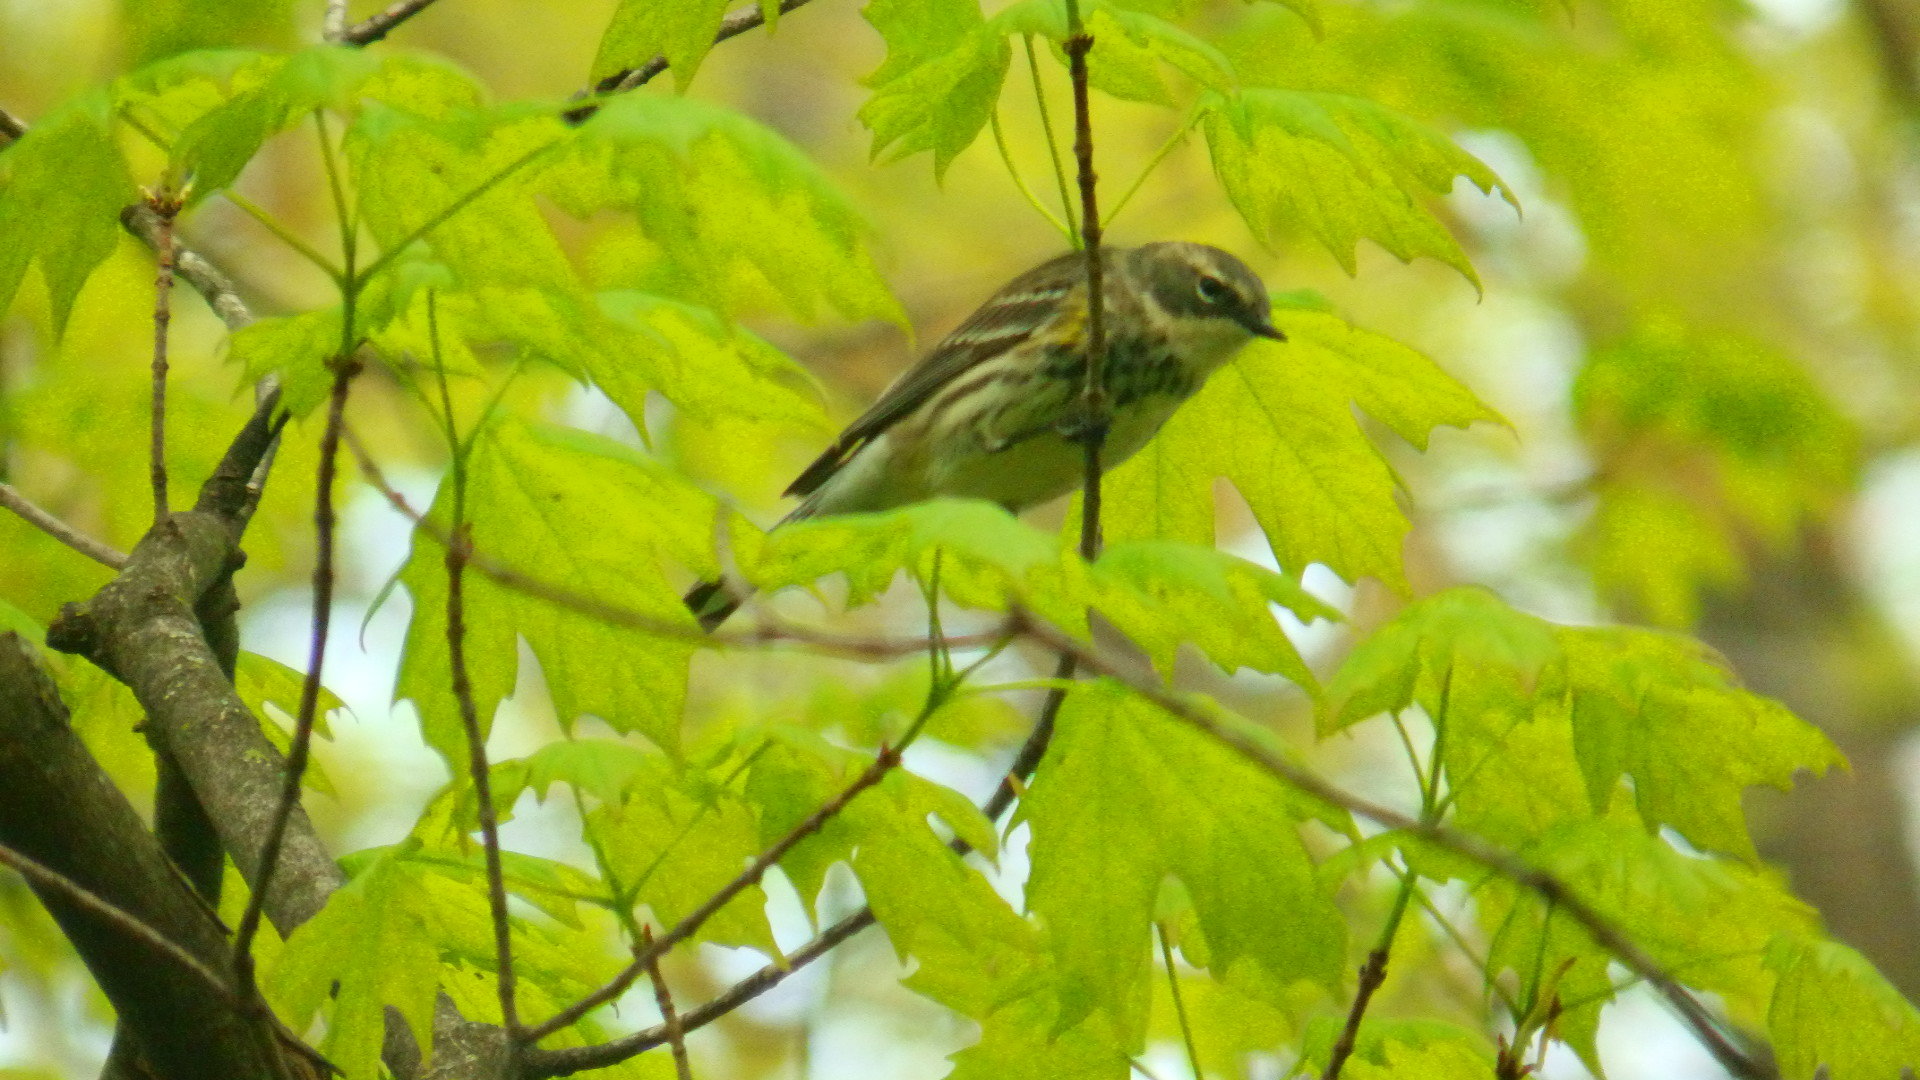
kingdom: Animalia
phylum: Chordata
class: Aves
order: Passeriformes
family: Parulidae
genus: Setophaga
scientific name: Setophaga coronata
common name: Myrtle warbler
